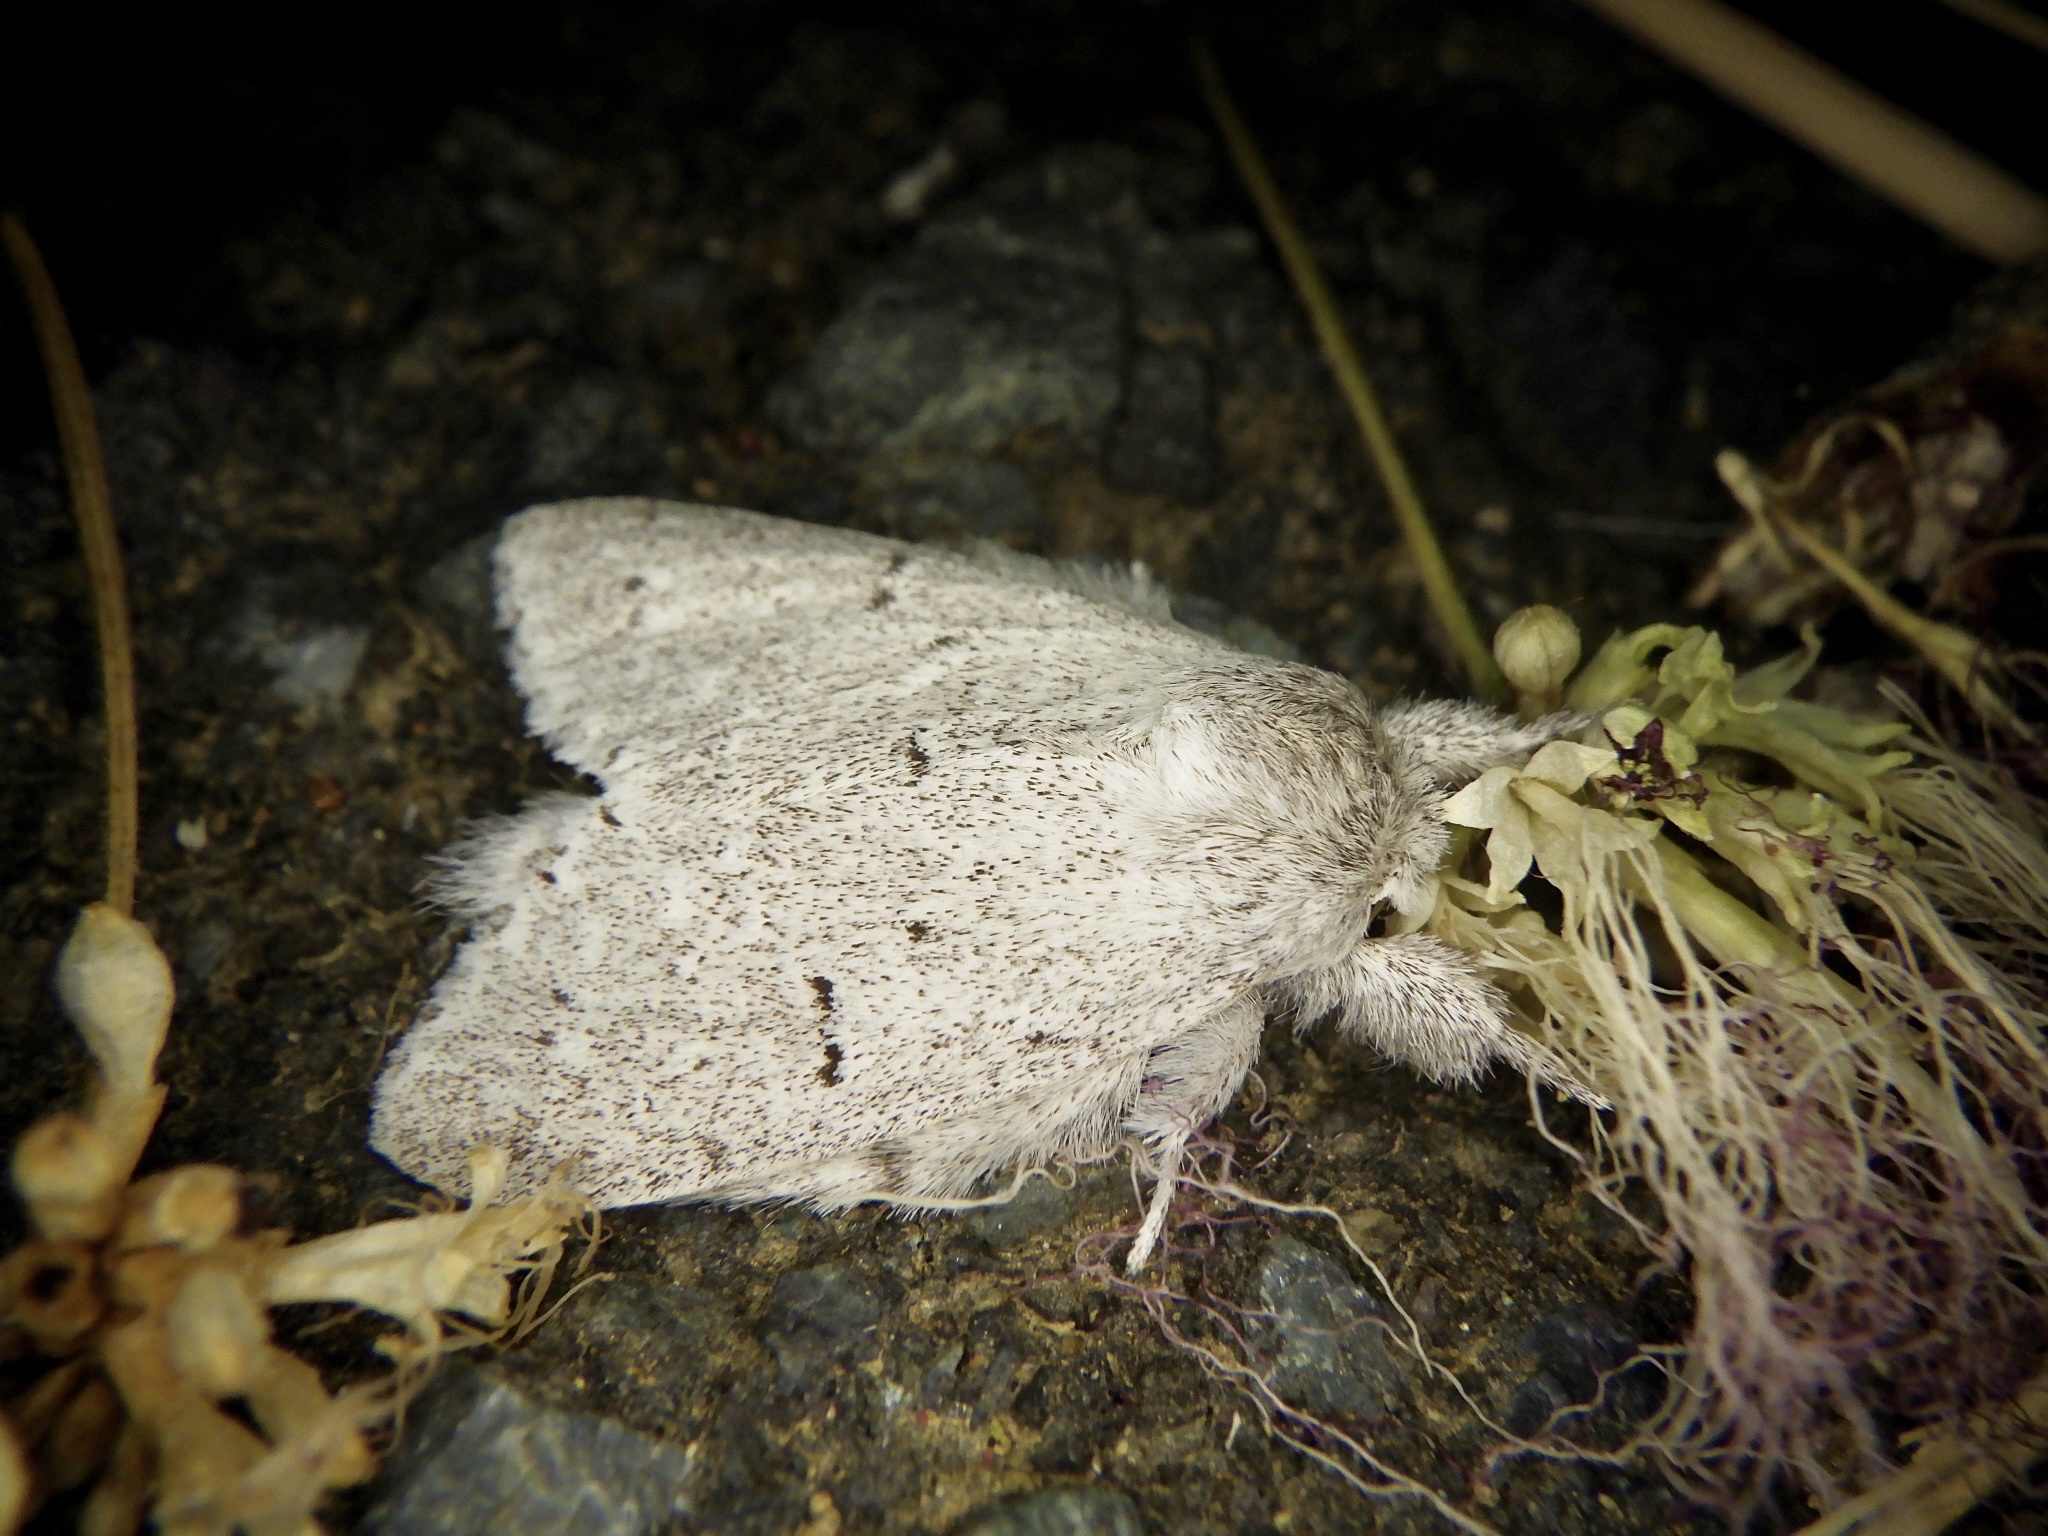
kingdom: Animalia
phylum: Arthropoda
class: Insecta
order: Lepidoptera
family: Notodontidae
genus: Cnethodonta
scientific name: Cnethodonta grisescens
